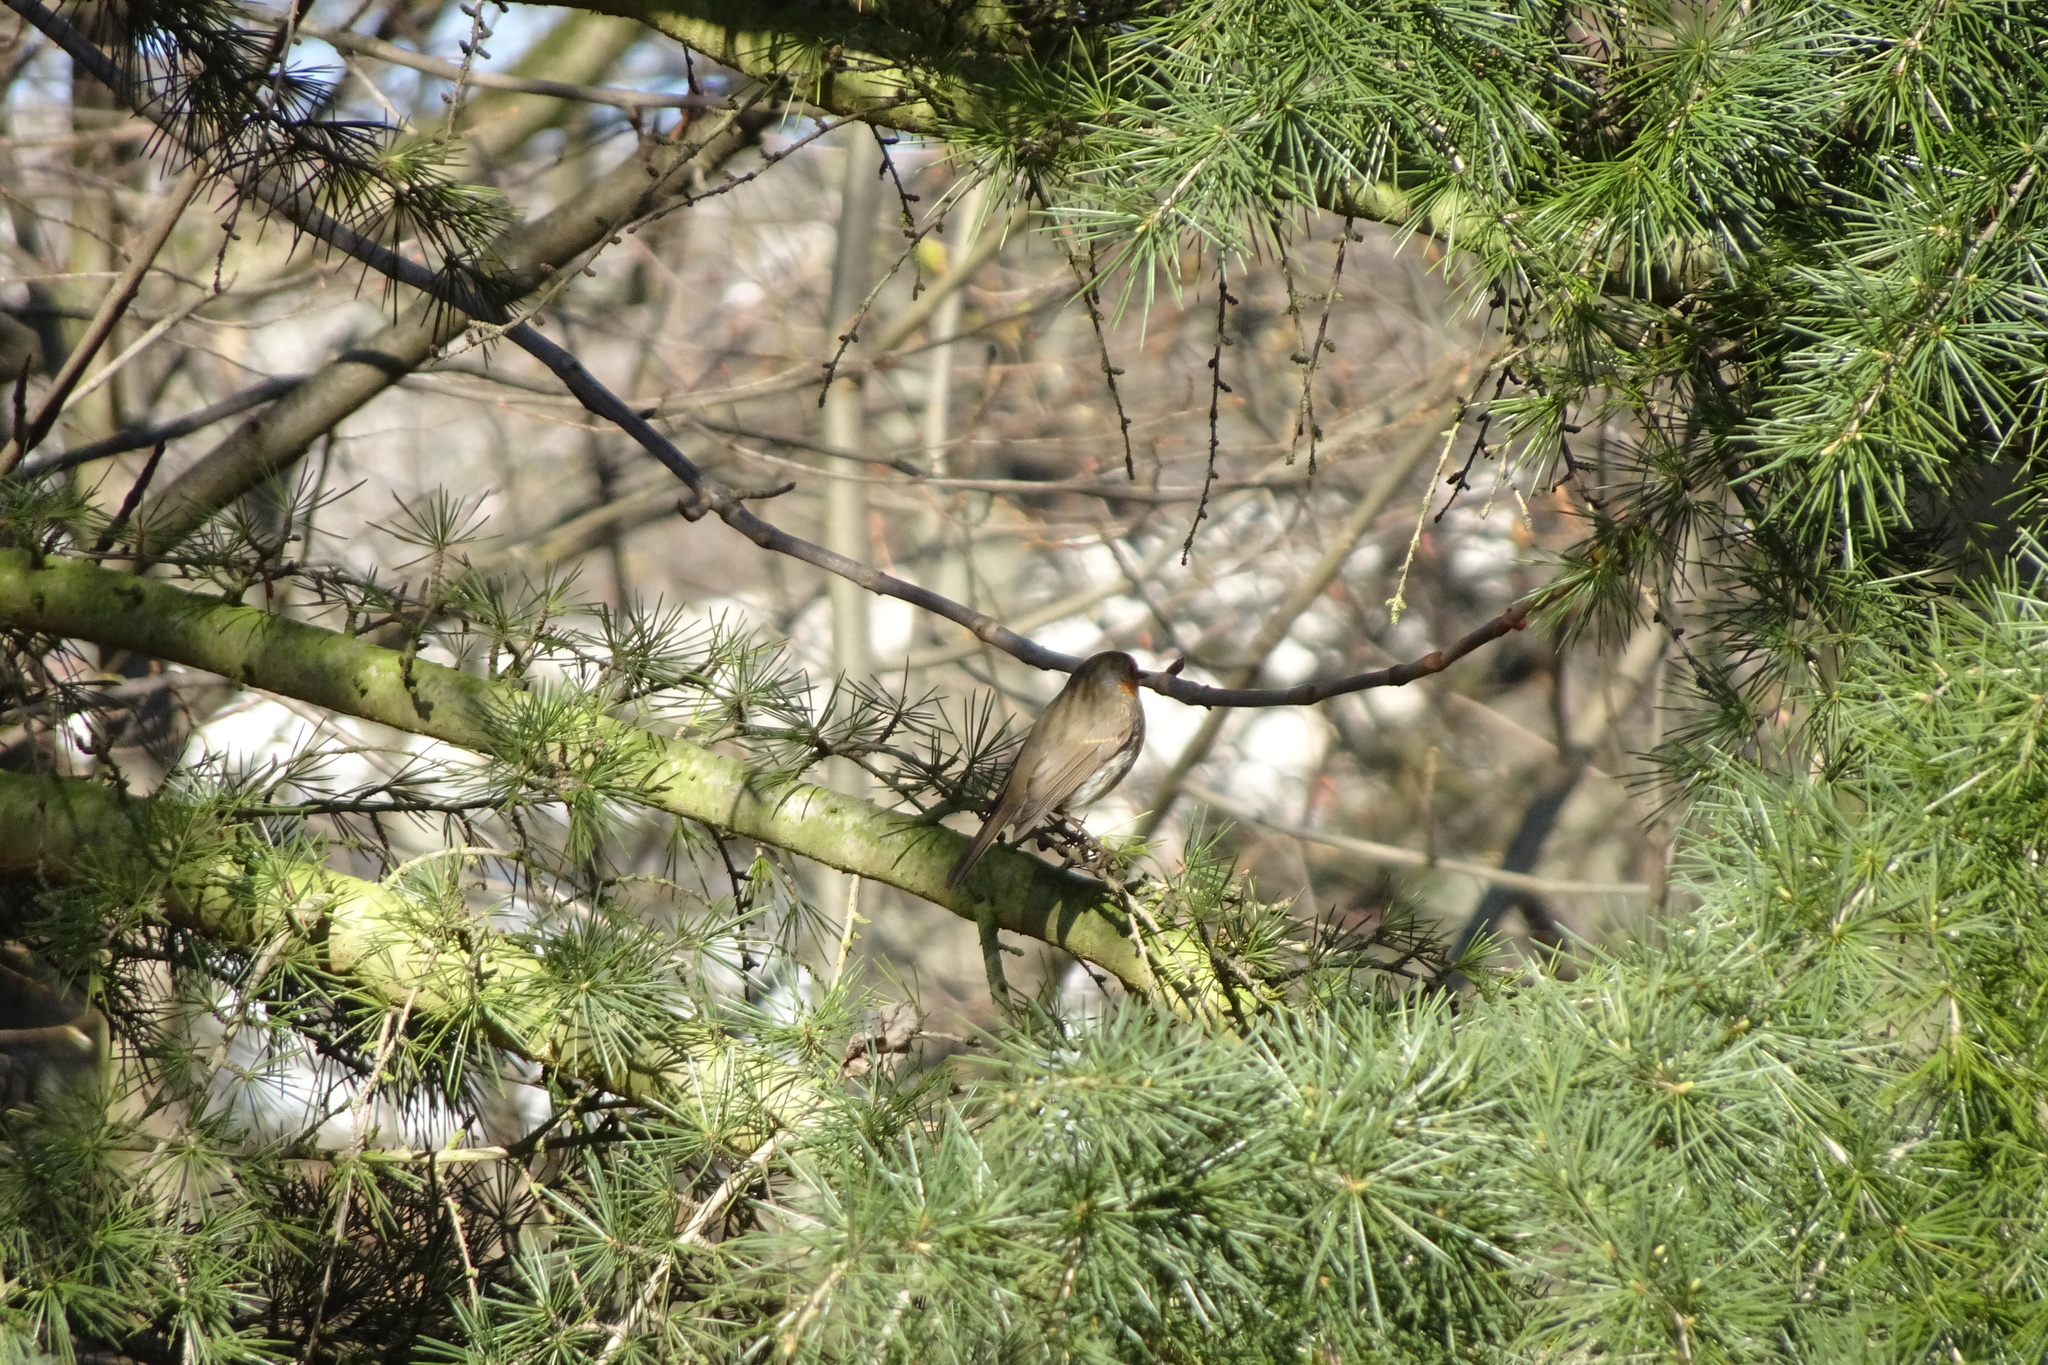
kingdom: Animalia
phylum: Chordata
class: Aves
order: Passeriformes
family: Muscicapidae
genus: Erithacus
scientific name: Erithacus rubecula
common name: European robin
